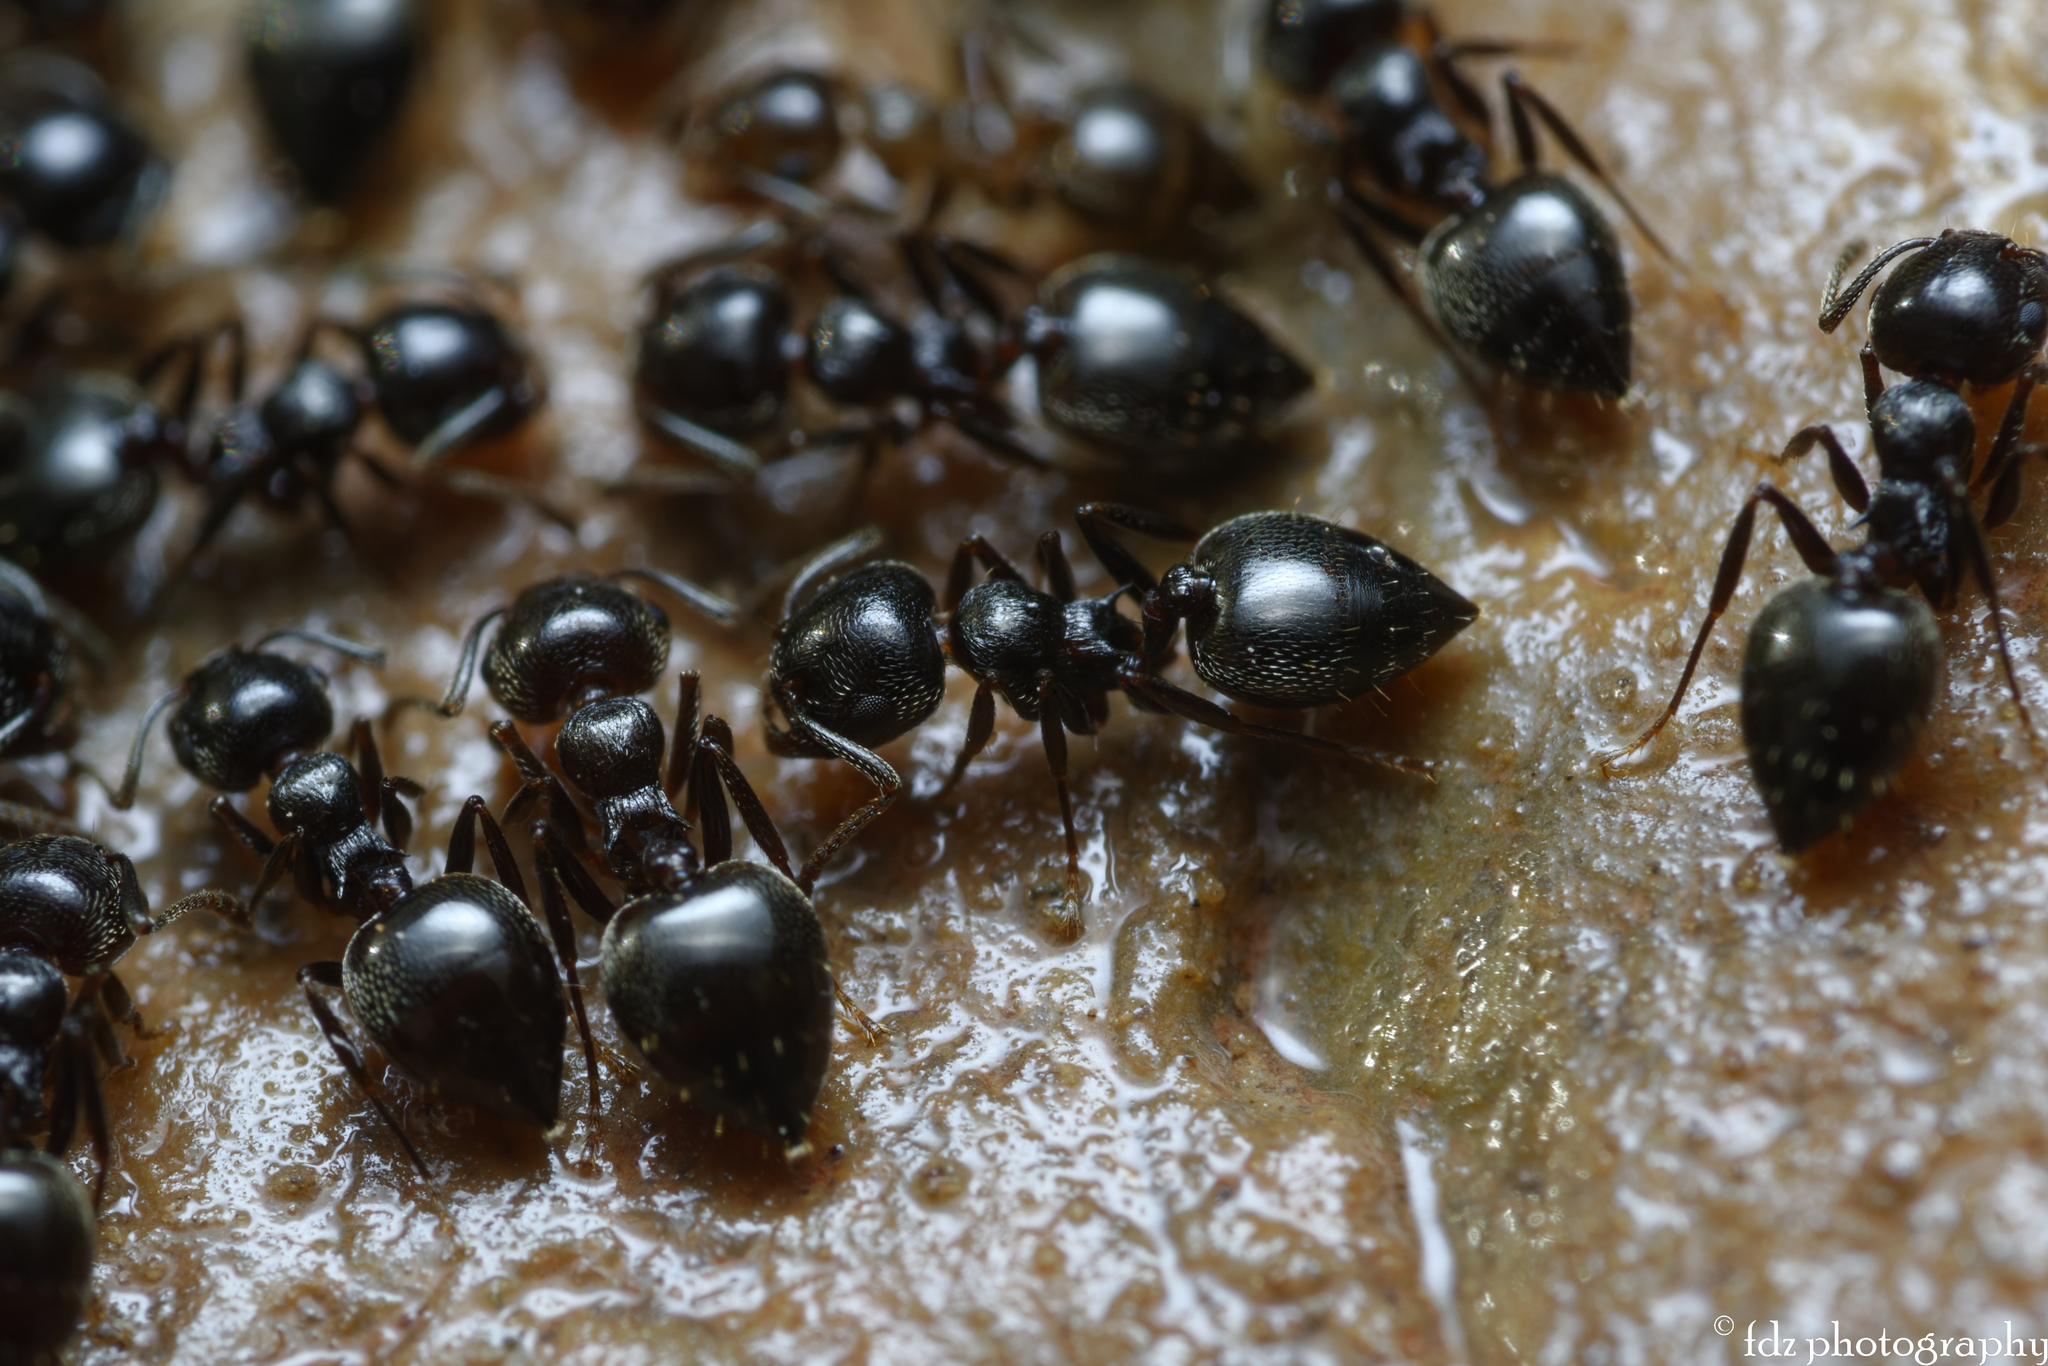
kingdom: Animalia
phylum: Arthropoda
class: Insecta
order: Hymenoptera
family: Formicidae
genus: Crematogaster
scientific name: Crematogaster auberti
